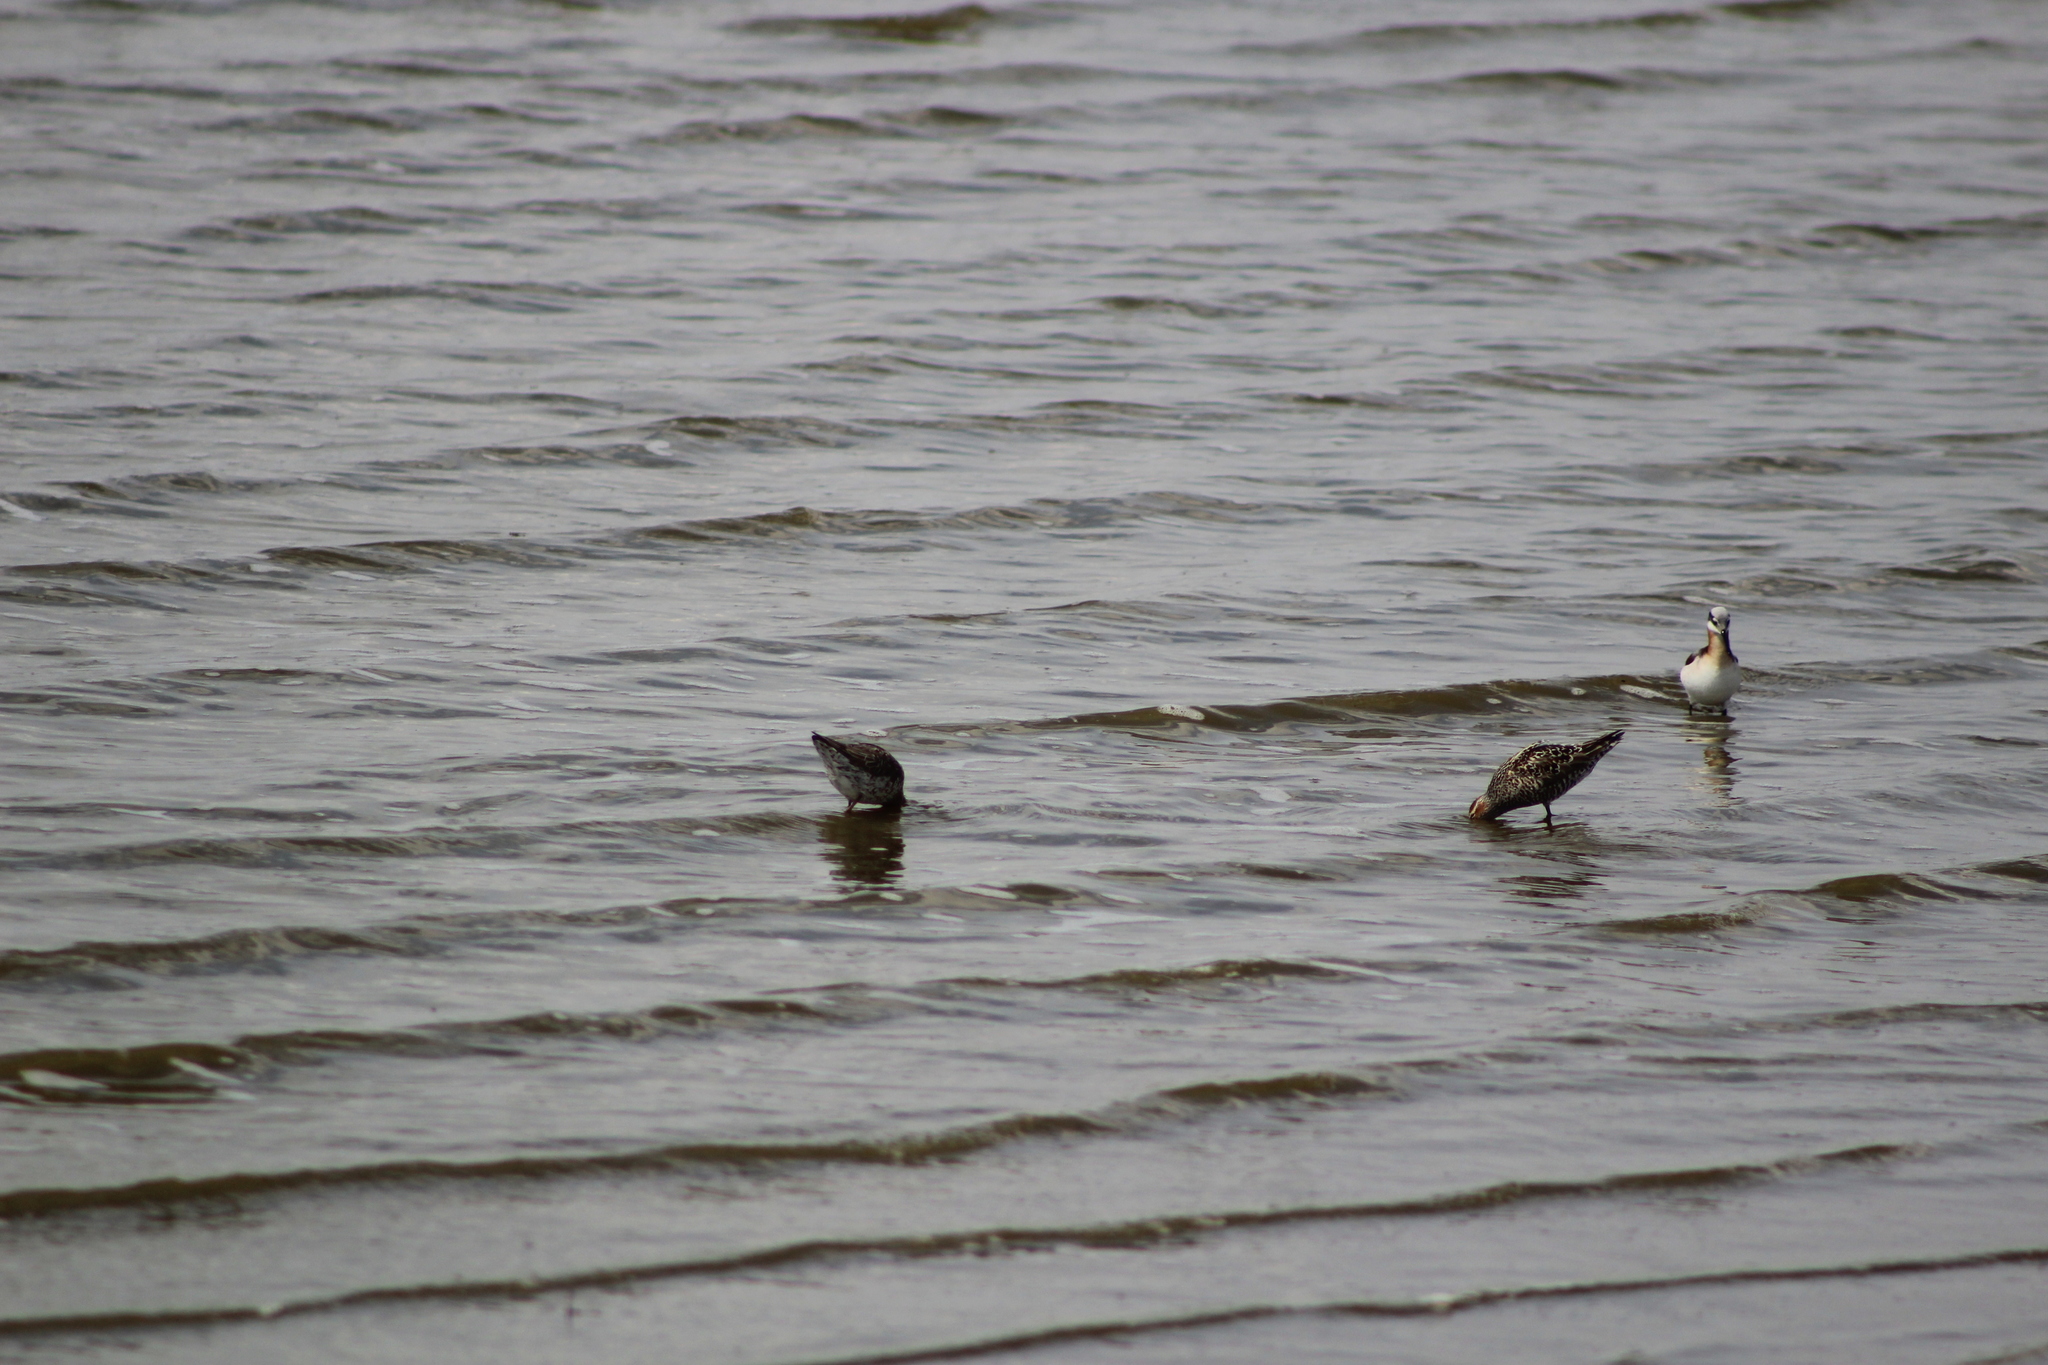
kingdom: Animalia
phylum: Chordata
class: Aves
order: Charadriiformes
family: Scolopacidae
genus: Calidris
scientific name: Calidris himantopus
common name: Stilt sandpiper
